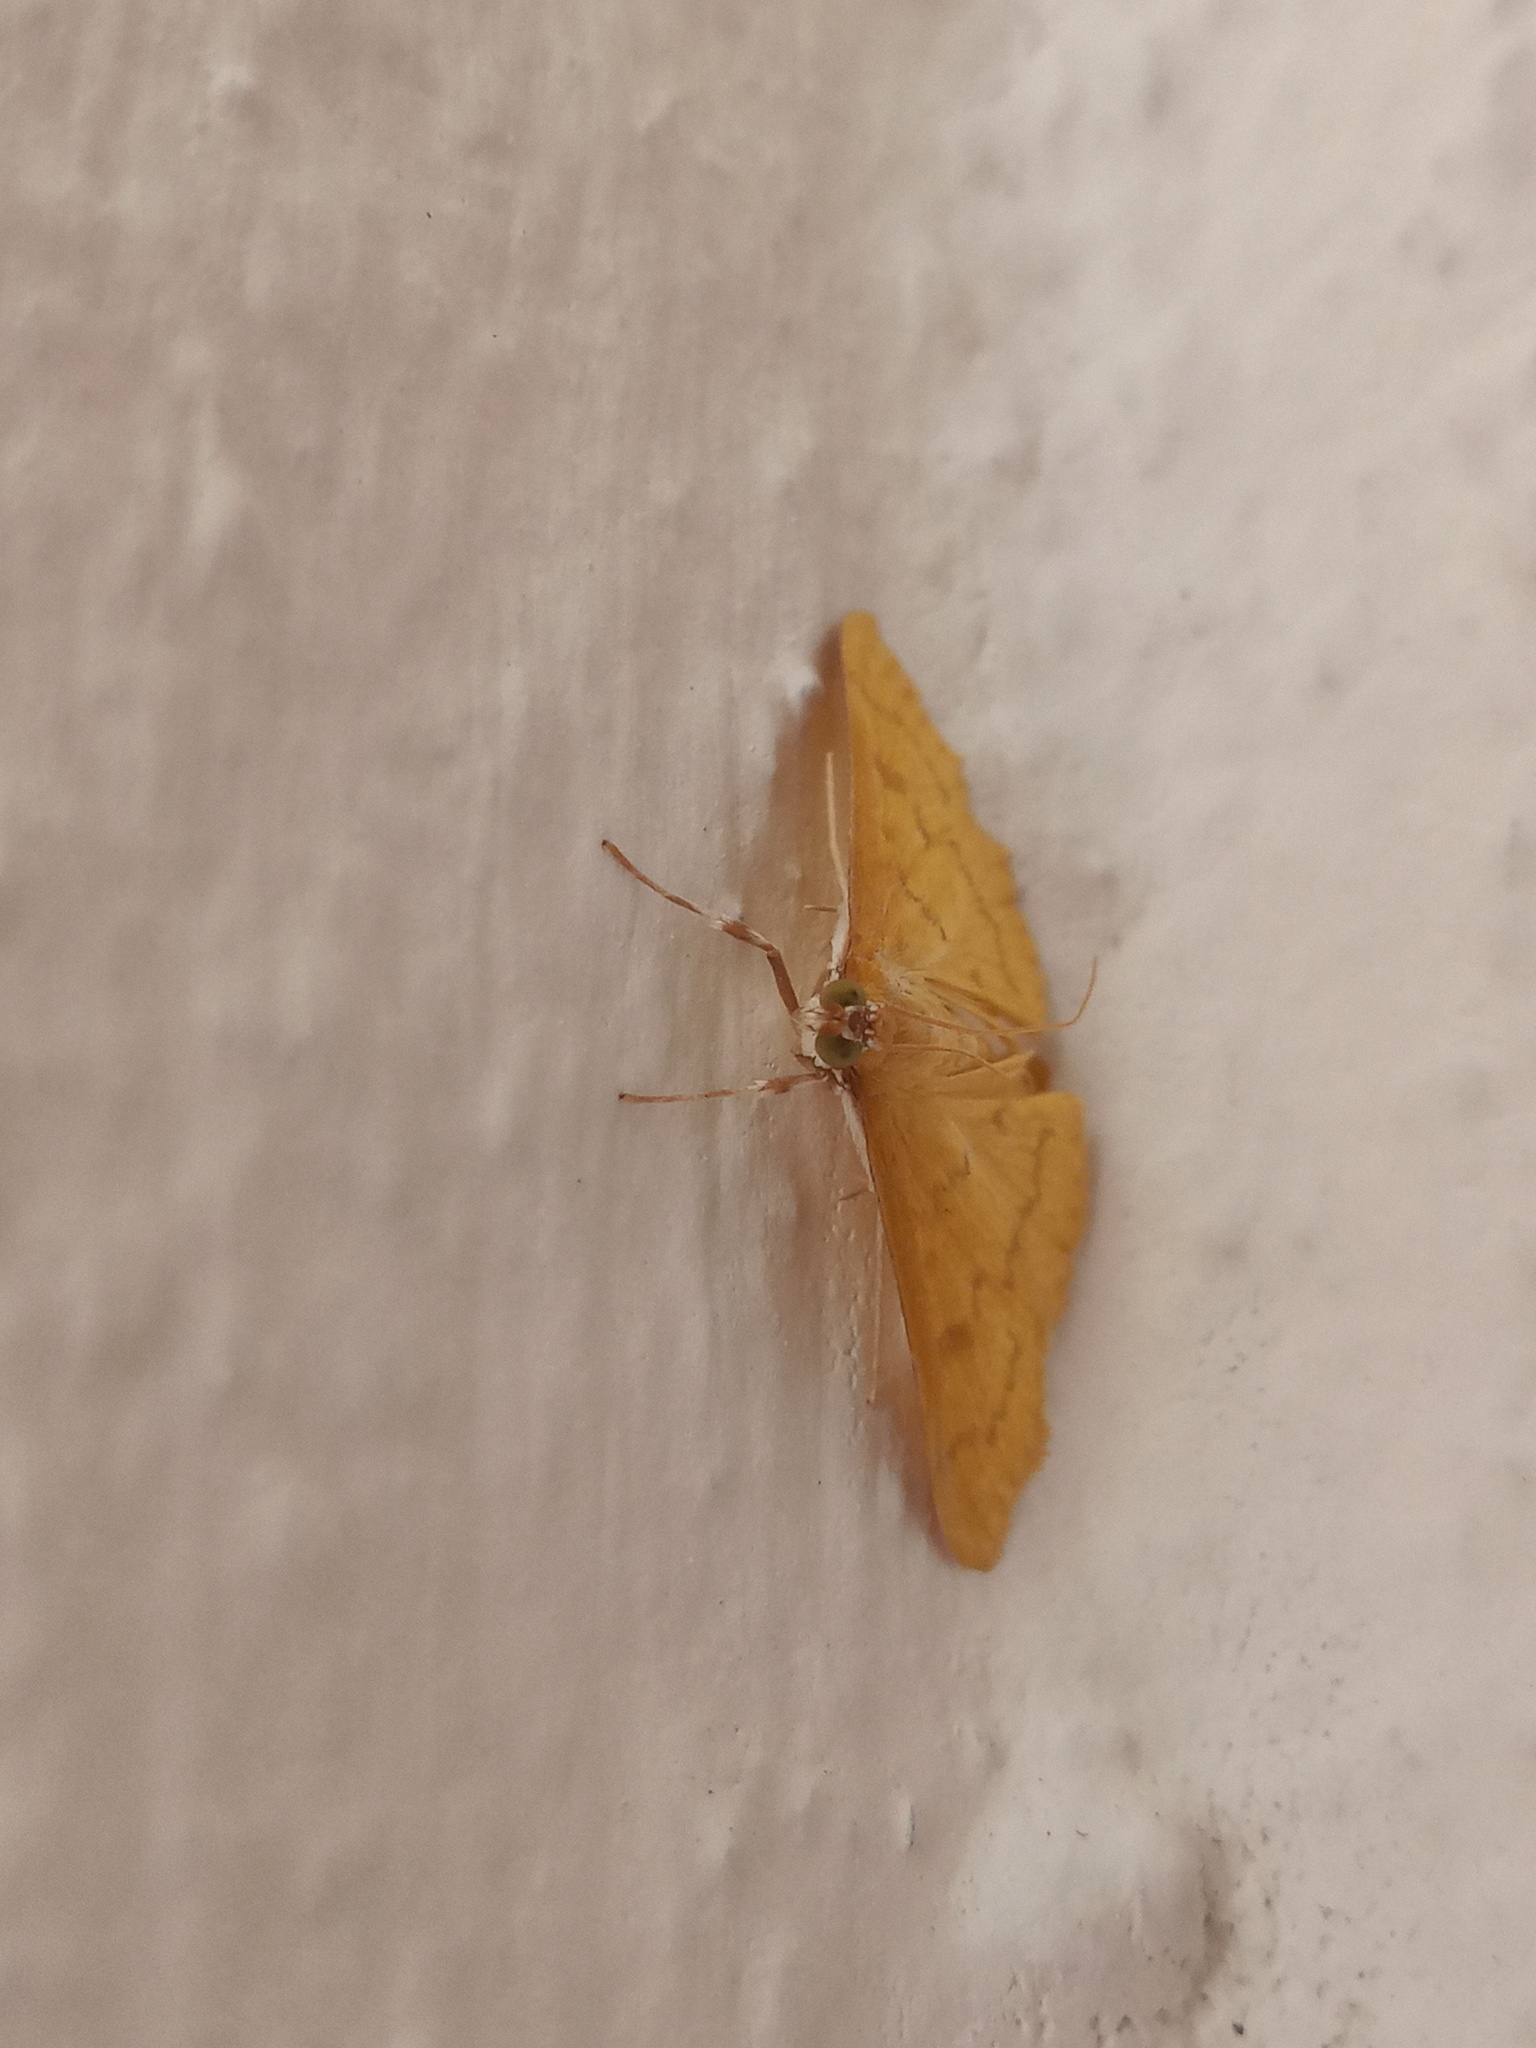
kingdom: Animalia
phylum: Arthropoda
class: Insecta
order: Lepidoptera
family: Crambidae
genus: Pilocrocis
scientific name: Pilocrocis dryalis
